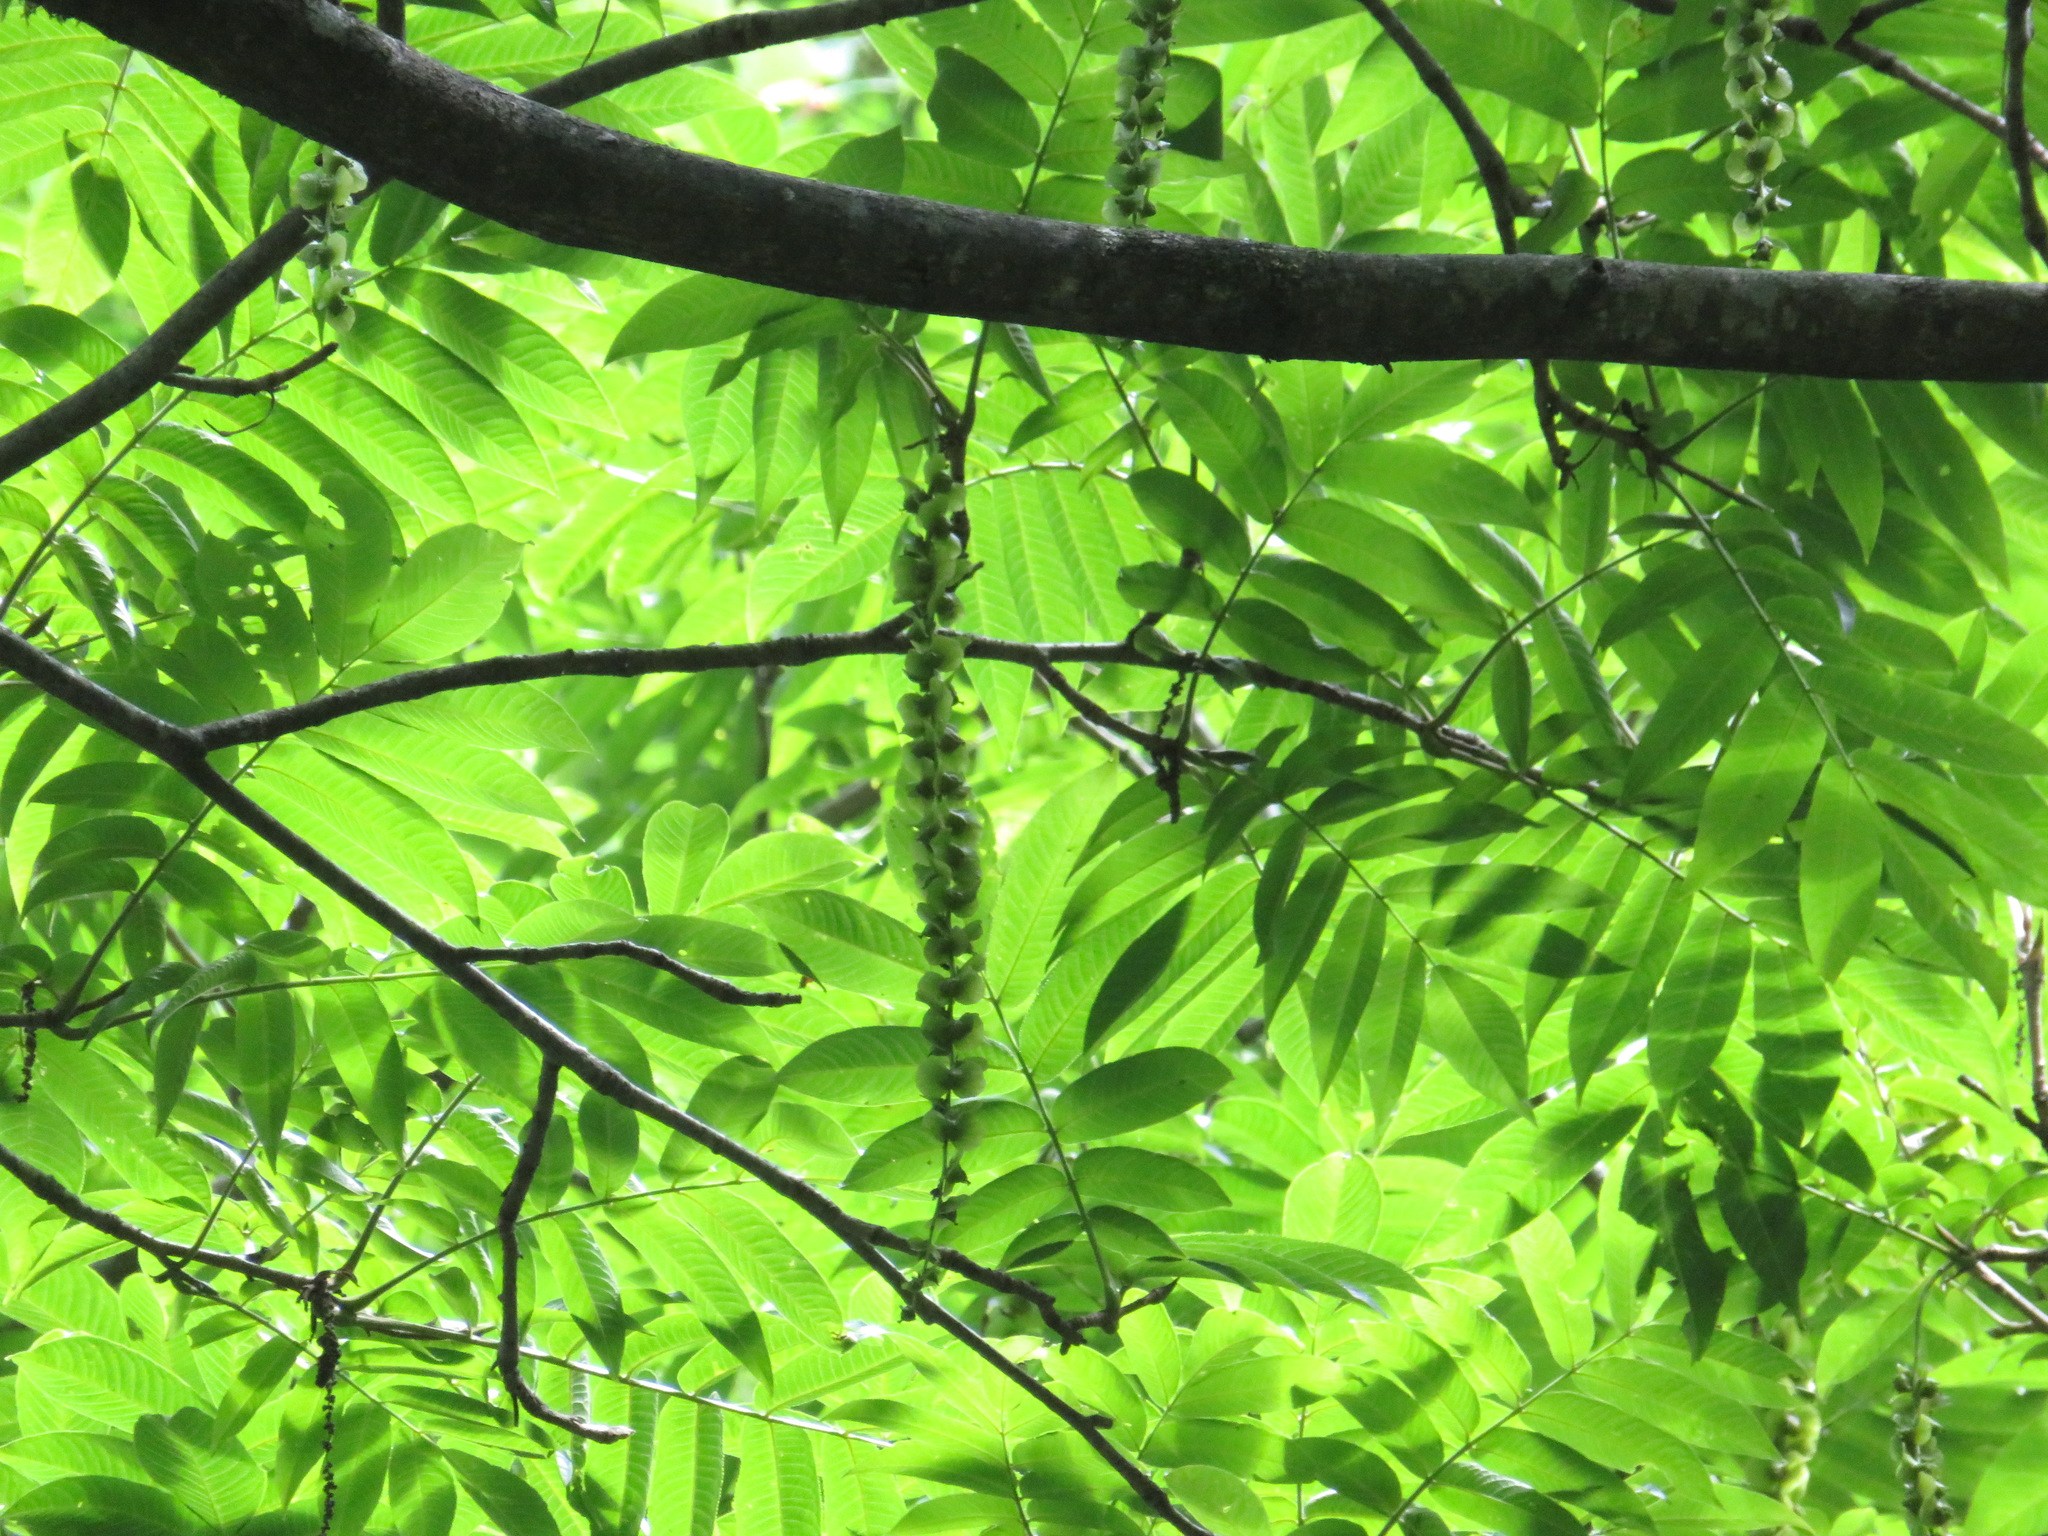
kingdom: Plantae
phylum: Tracheophyta
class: Magnoliopsida
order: Fagales
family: Juglandaceae
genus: Pterocarya
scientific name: Pterocarya rhoifolia
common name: Japanese wingnut
